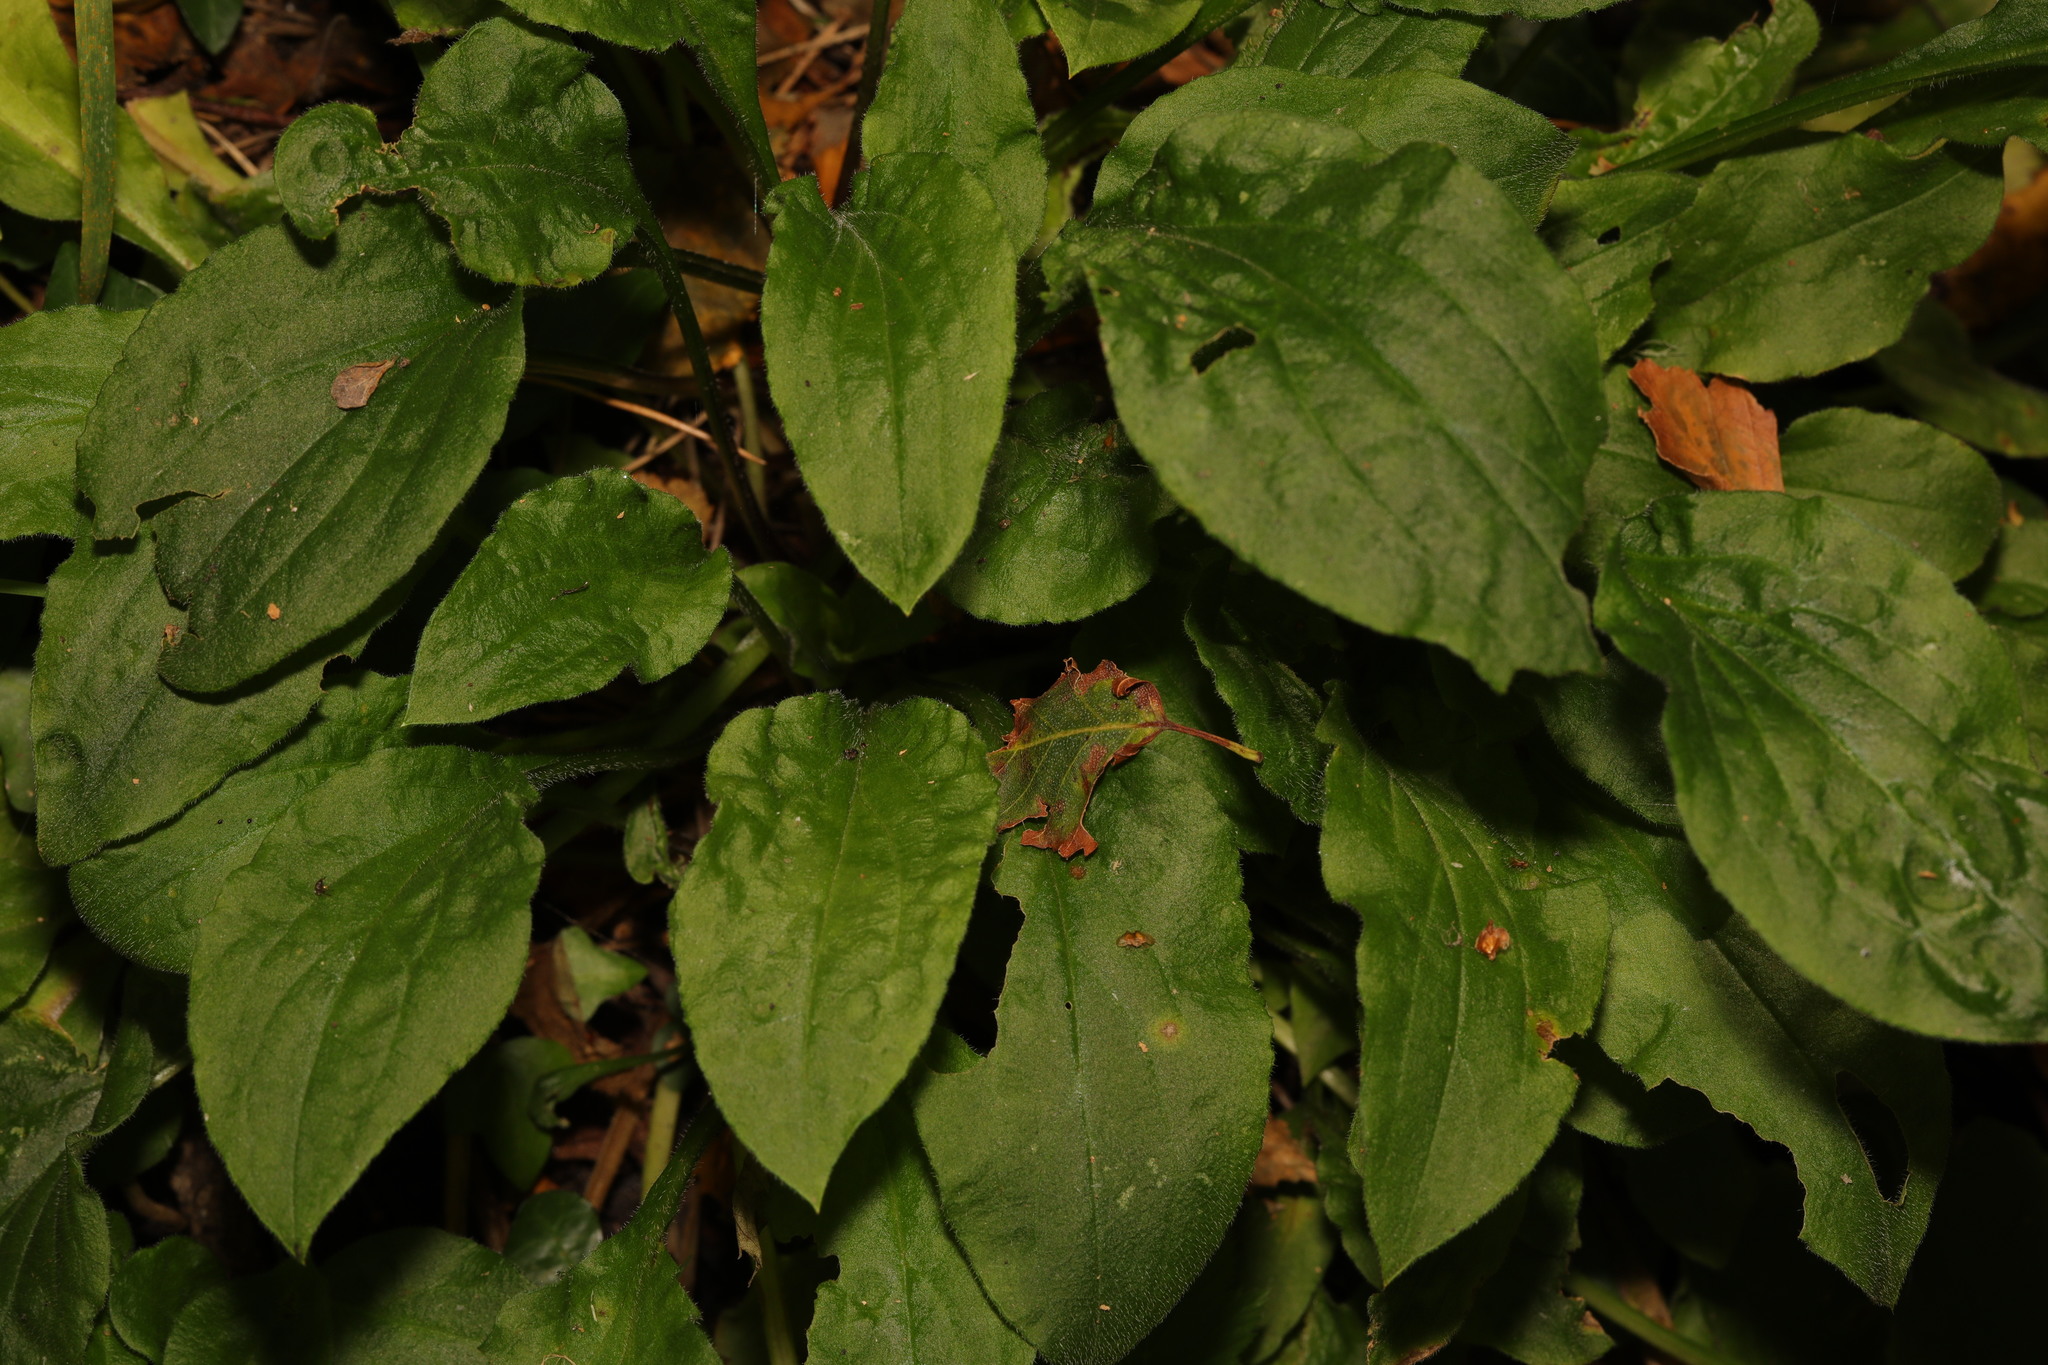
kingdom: Plantae
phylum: Tracheophyta
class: Magnoliopsida
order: Caryophyllales
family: Caryophyllaceae
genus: Silene
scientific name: Silene dioica
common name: Red campion
